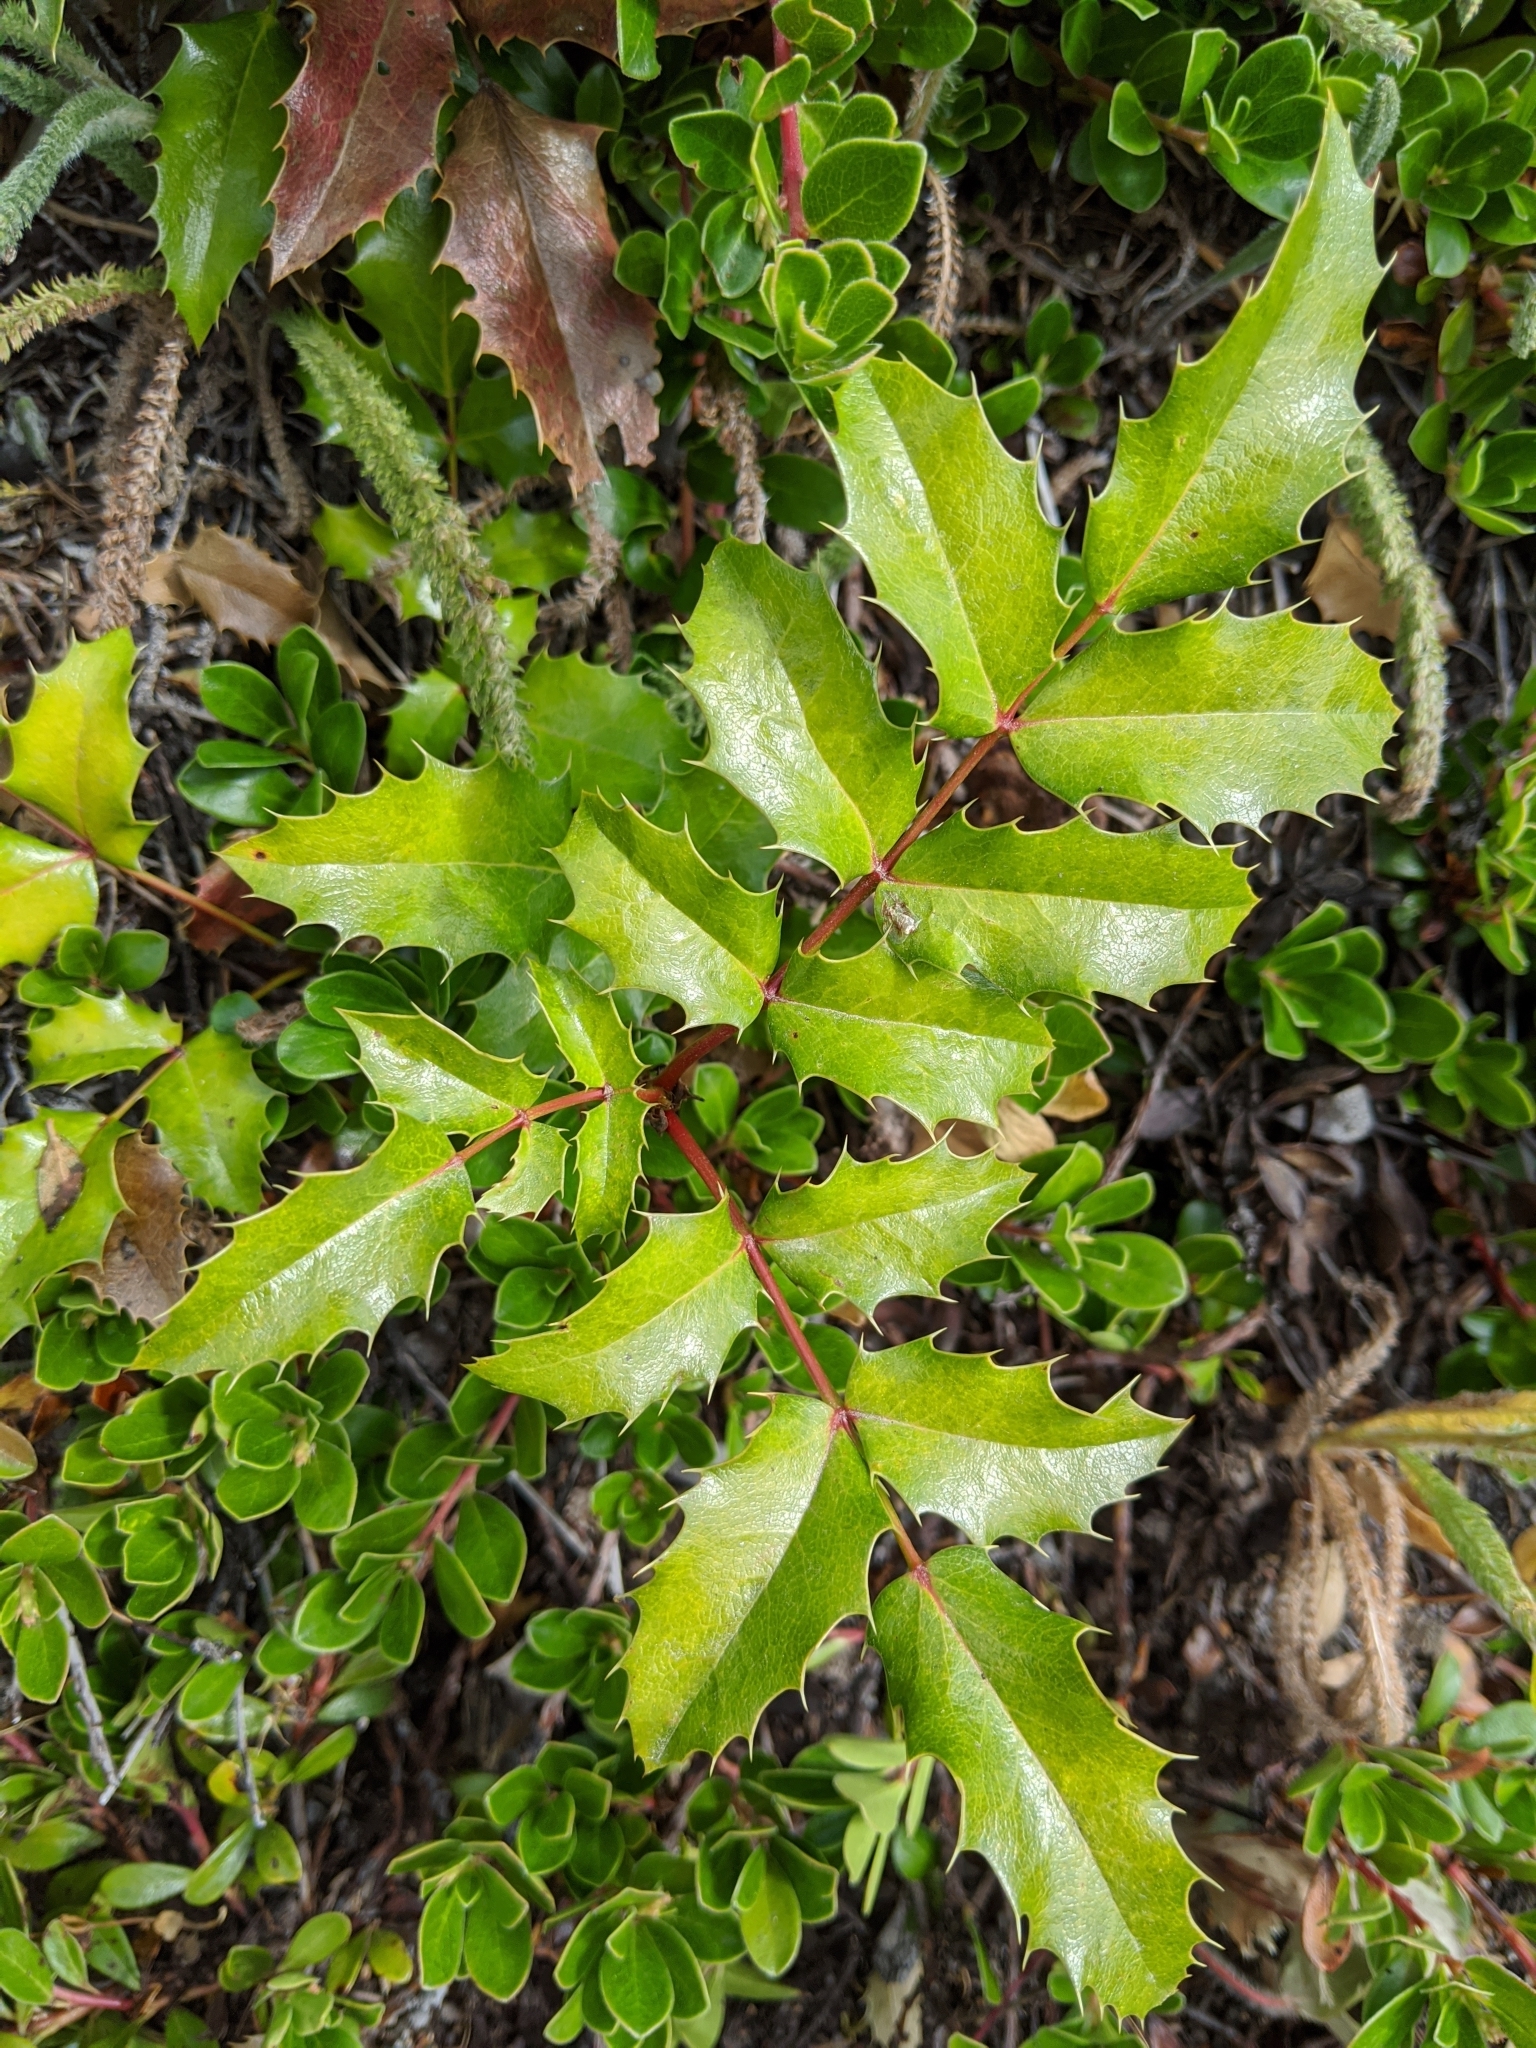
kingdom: Plantae
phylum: Tracheophyta
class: Magnoliopsida
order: Ranunculales
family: Berberidaceae
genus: Mahonia
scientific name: Mahonia aquifolium
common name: Oregon-grape
